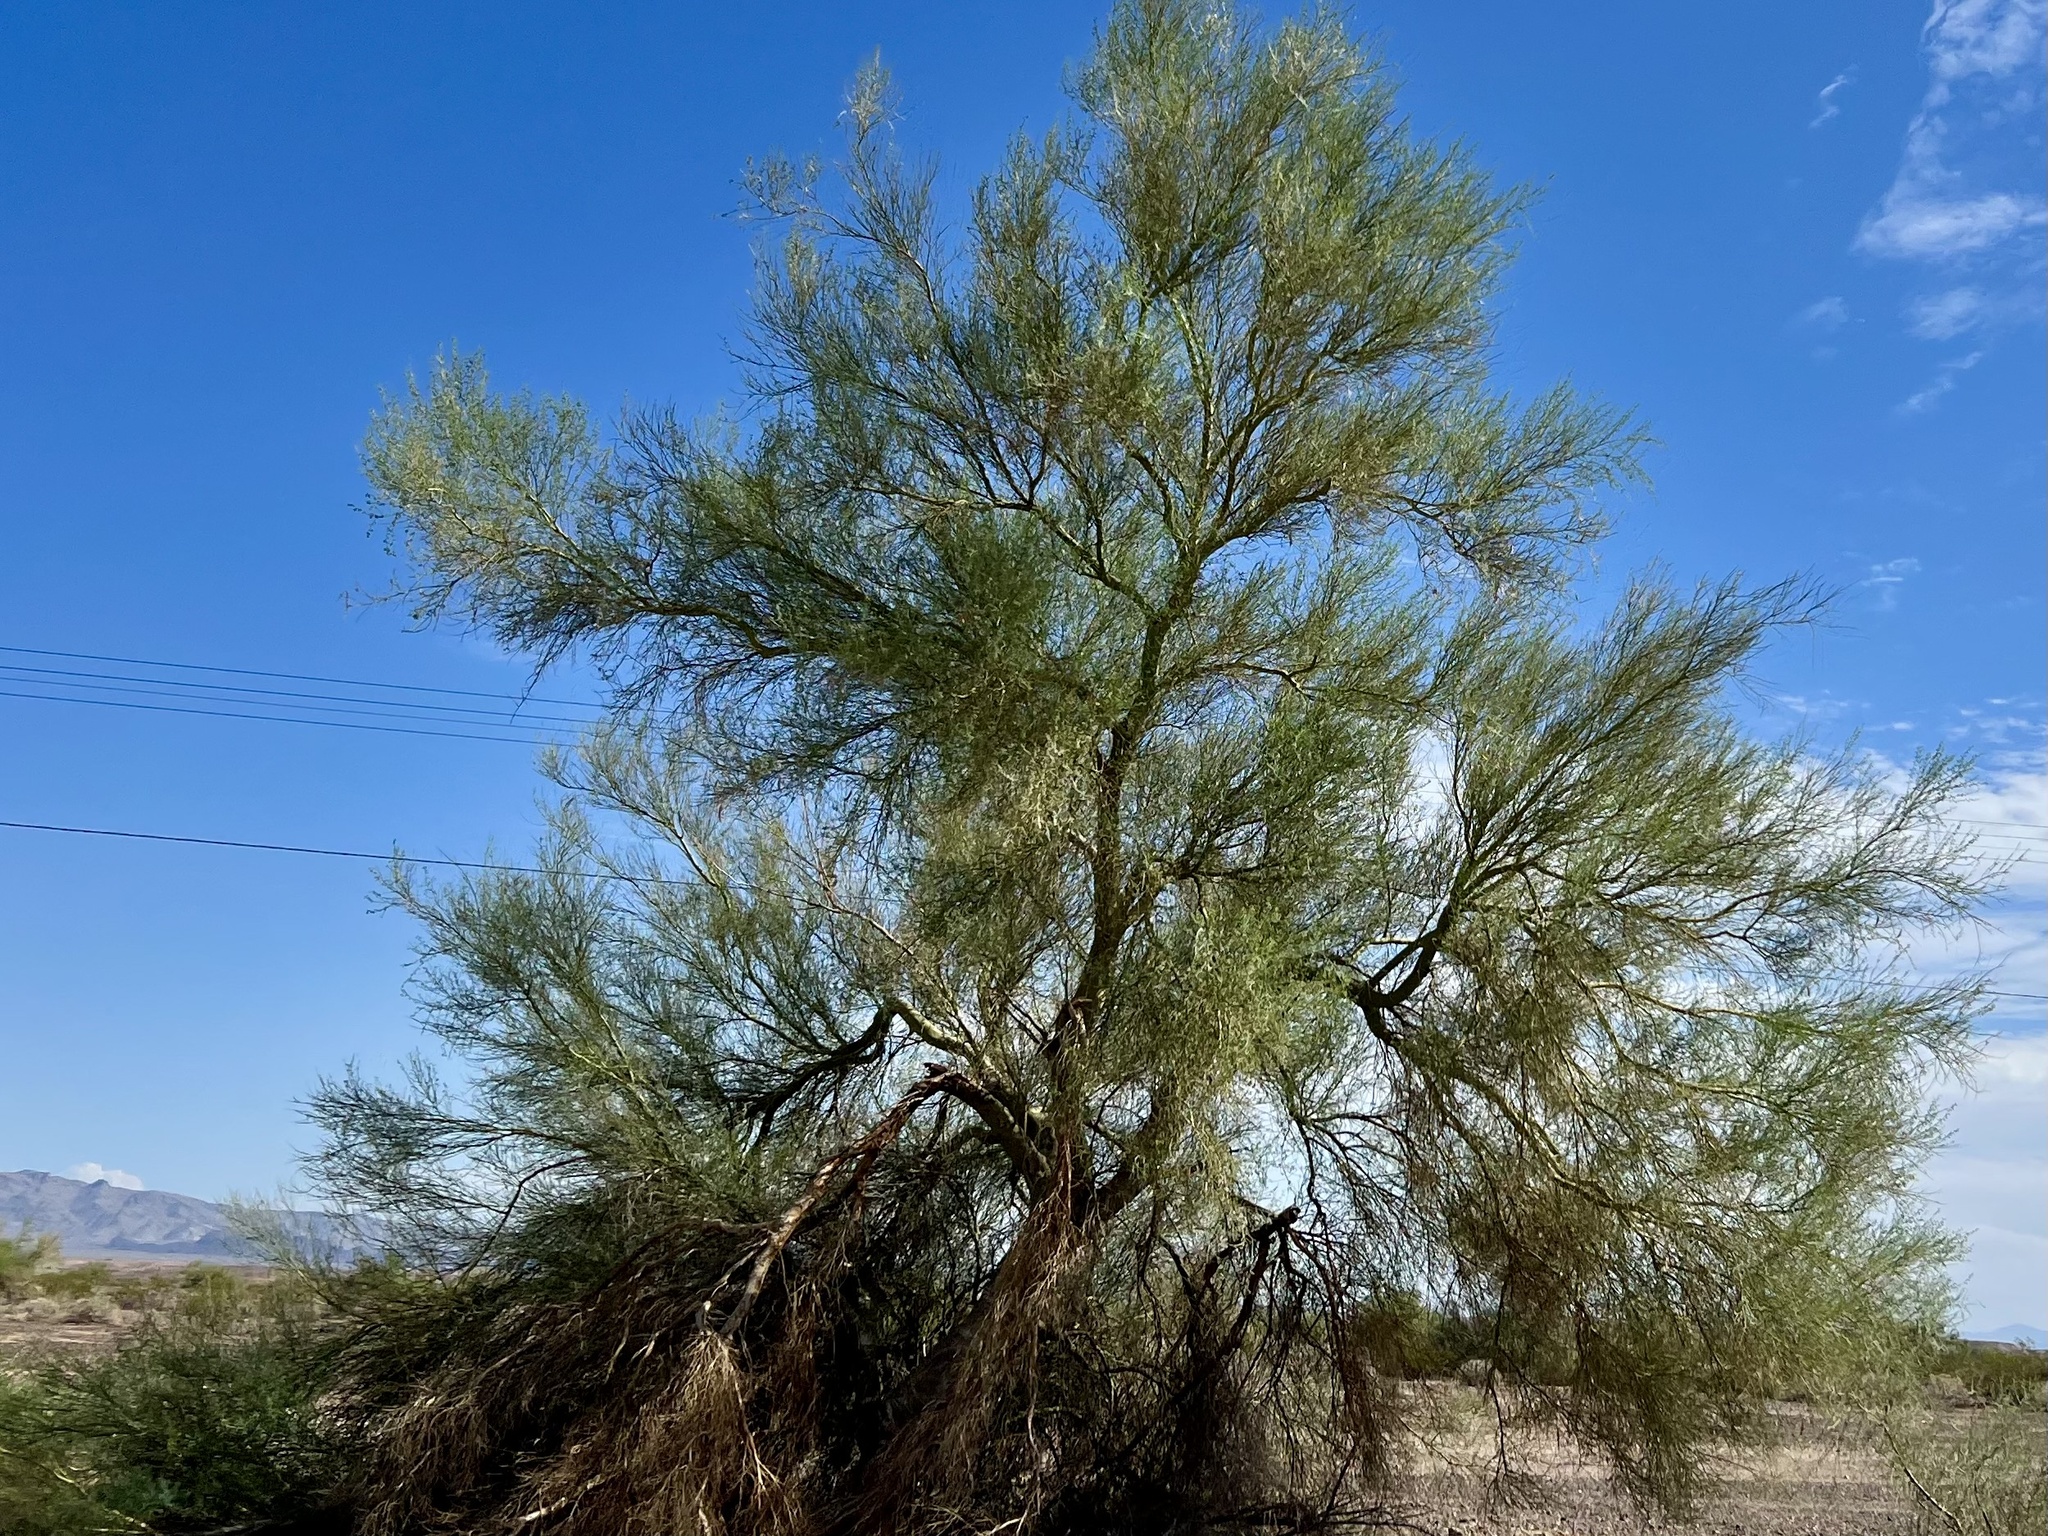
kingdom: Plantae
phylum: Tracheophyta
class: Magnoliopsida
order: Fabales
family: Fabaceae
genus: Parkinsonia
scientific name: Parkinsonia florida
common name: Blue paloverde
